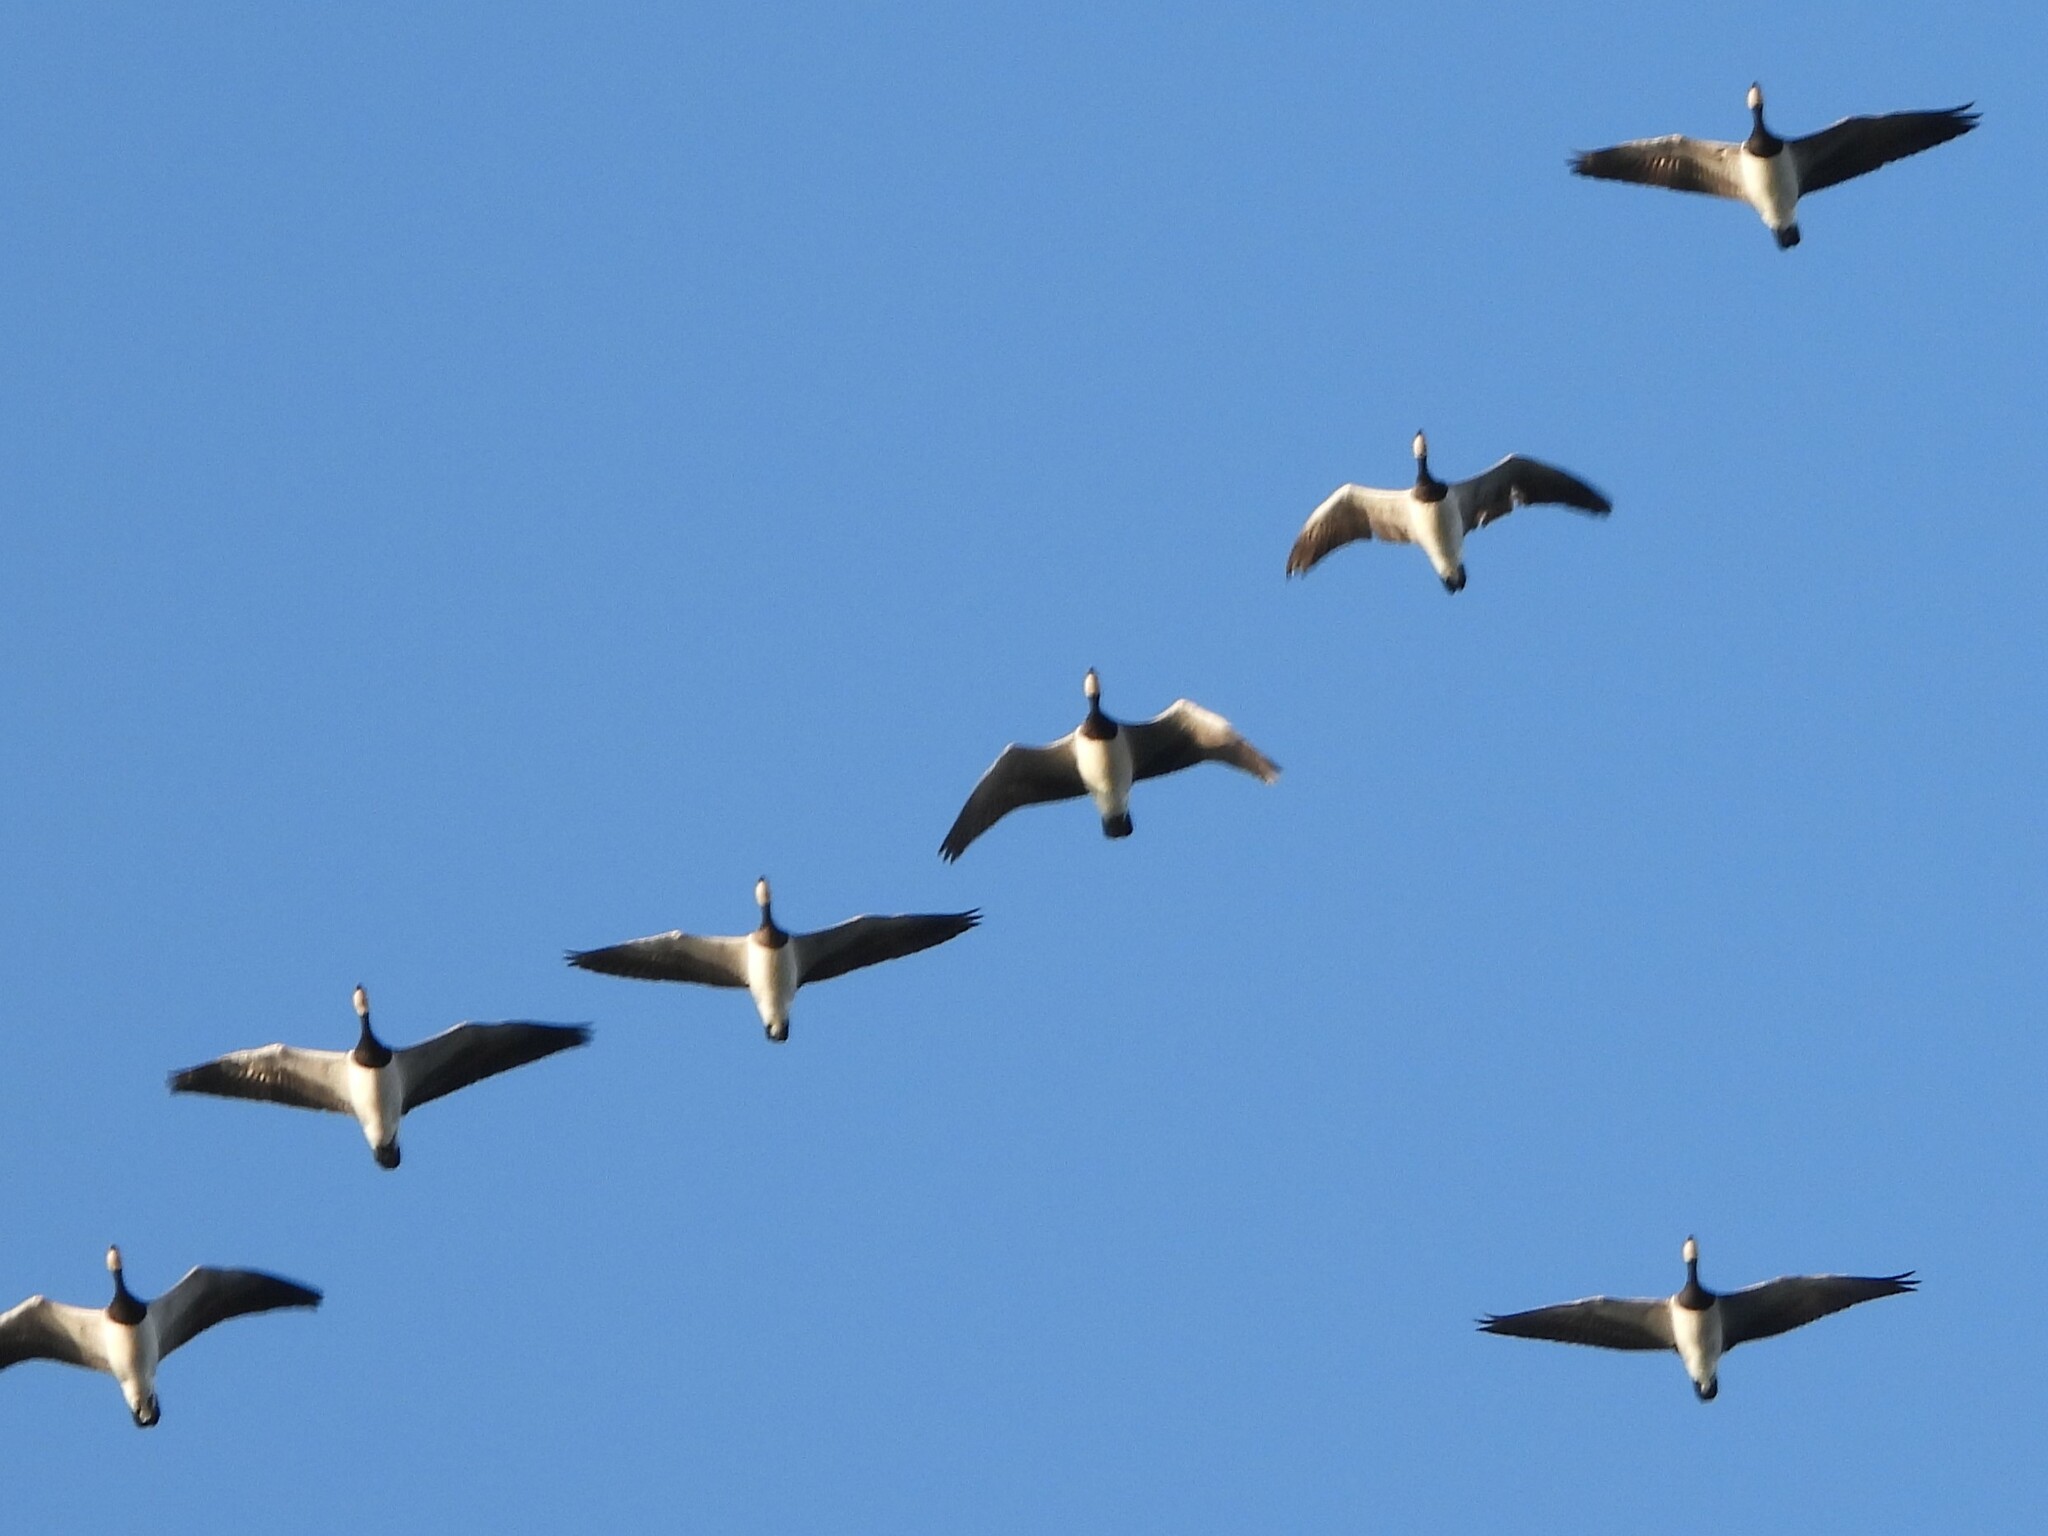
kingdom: Animalia
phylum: Chordata
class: Aves
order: Anseriformes
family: Anatidae
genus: Branta
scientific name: Branta leucopsis
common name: Barnacle goose
